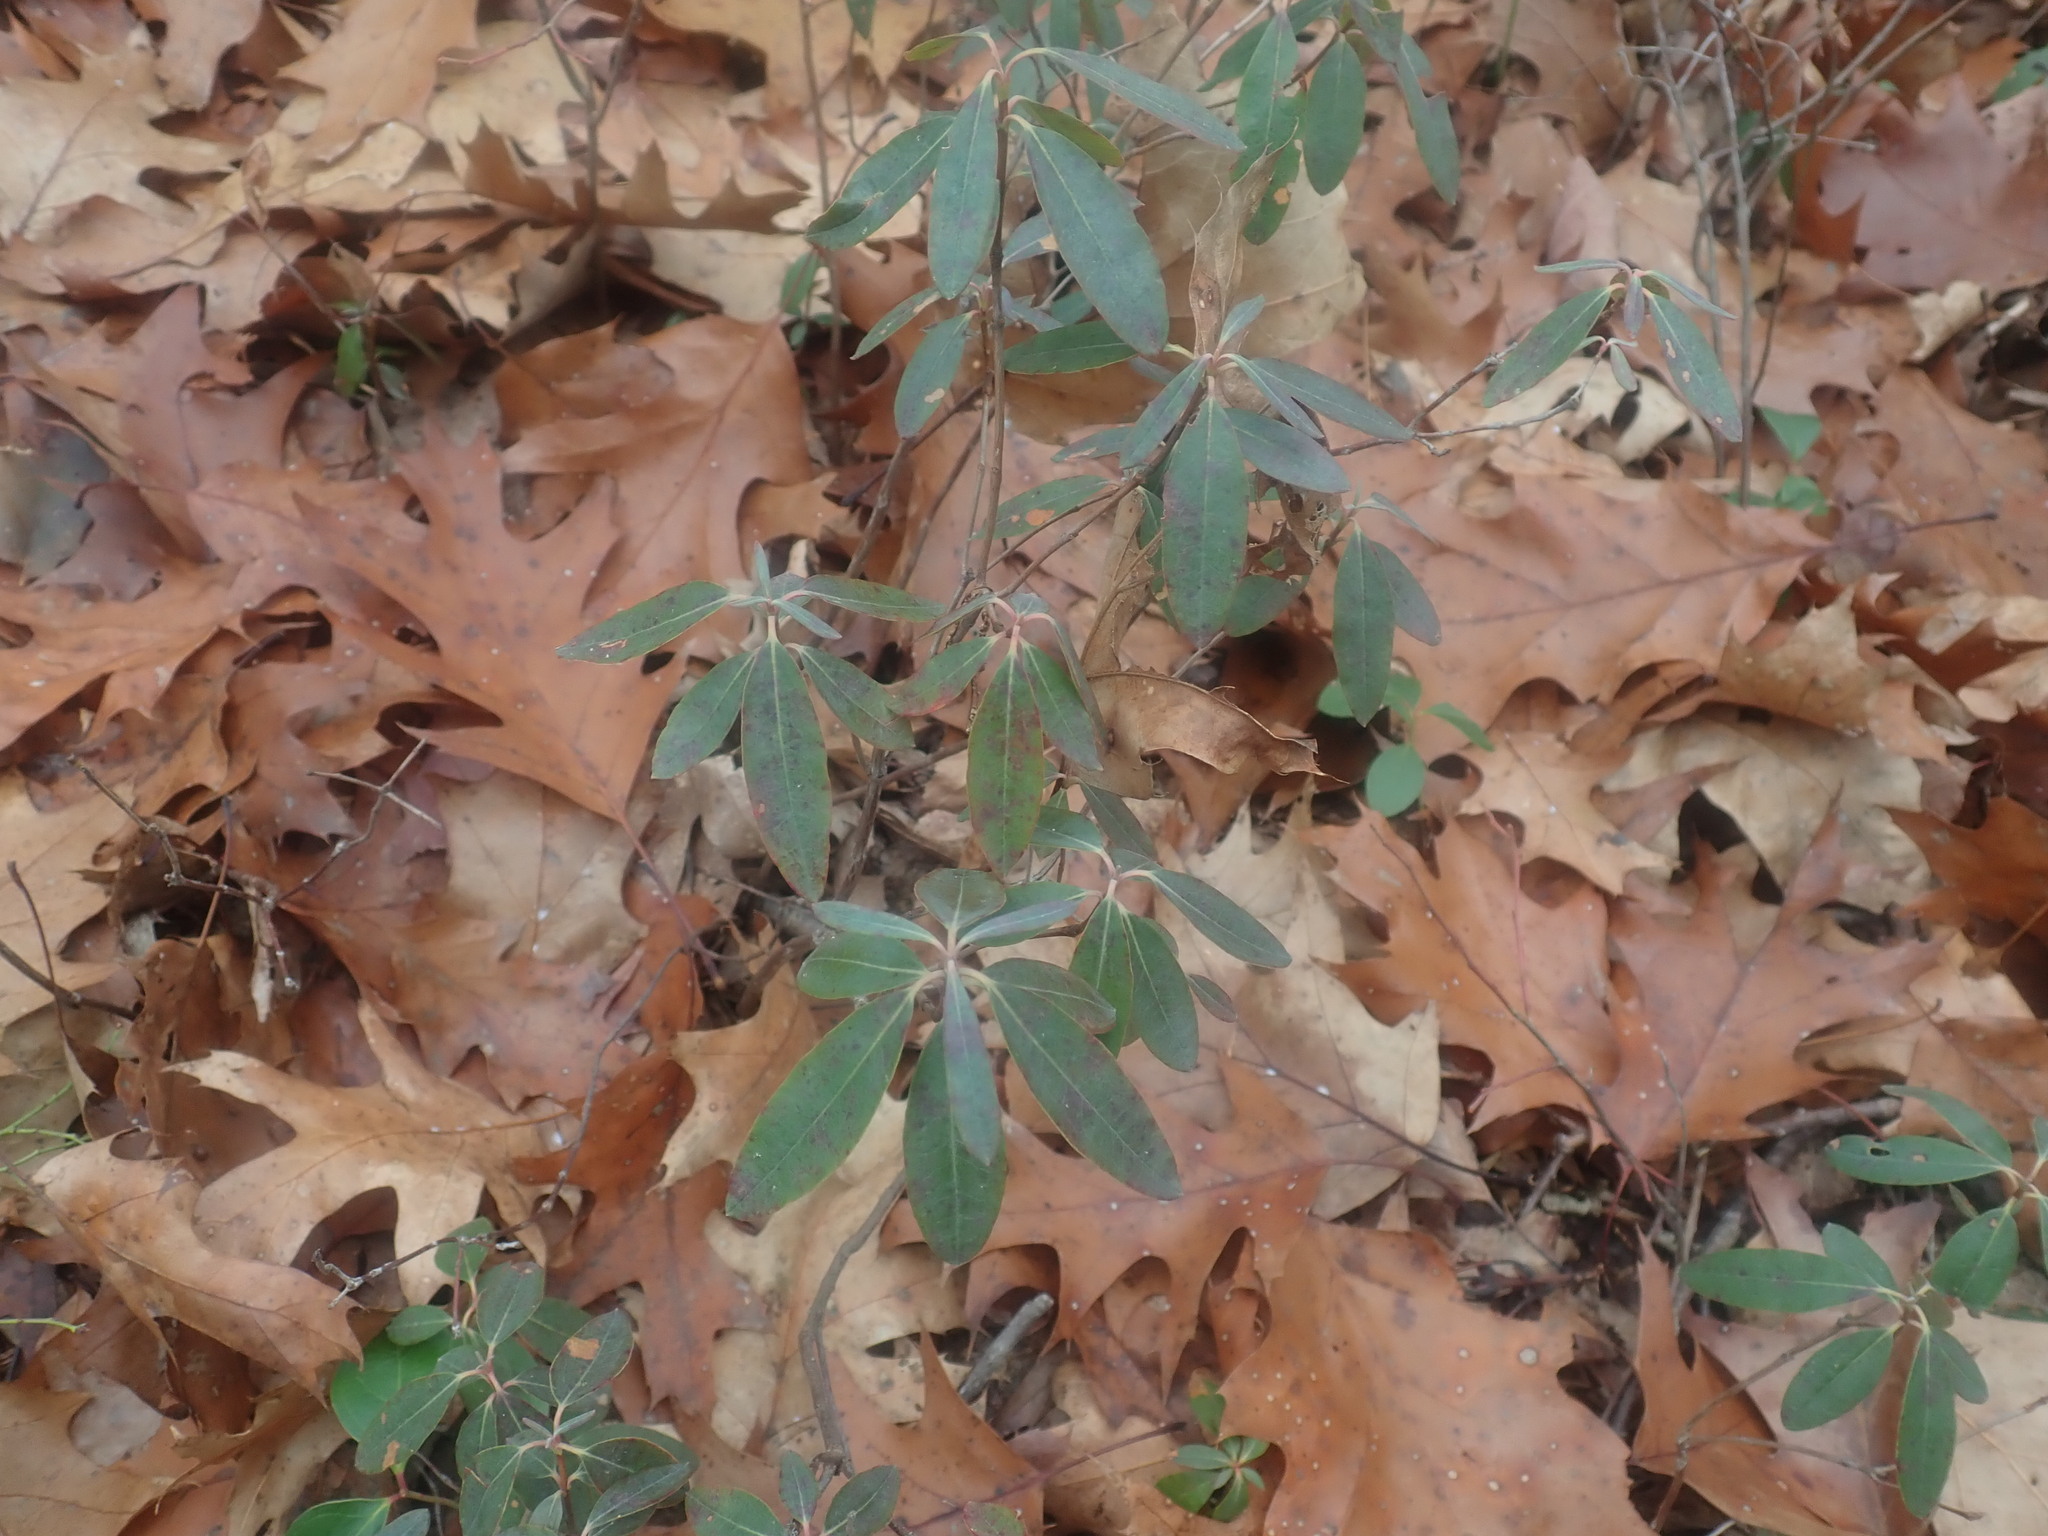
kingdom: Plantae
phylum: Tracheophyta
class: Magnoliopsida
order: Ericales
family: Ericaceae
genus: Kalmia
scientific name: Kalmia angustifolia
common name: Sheep-laurel
